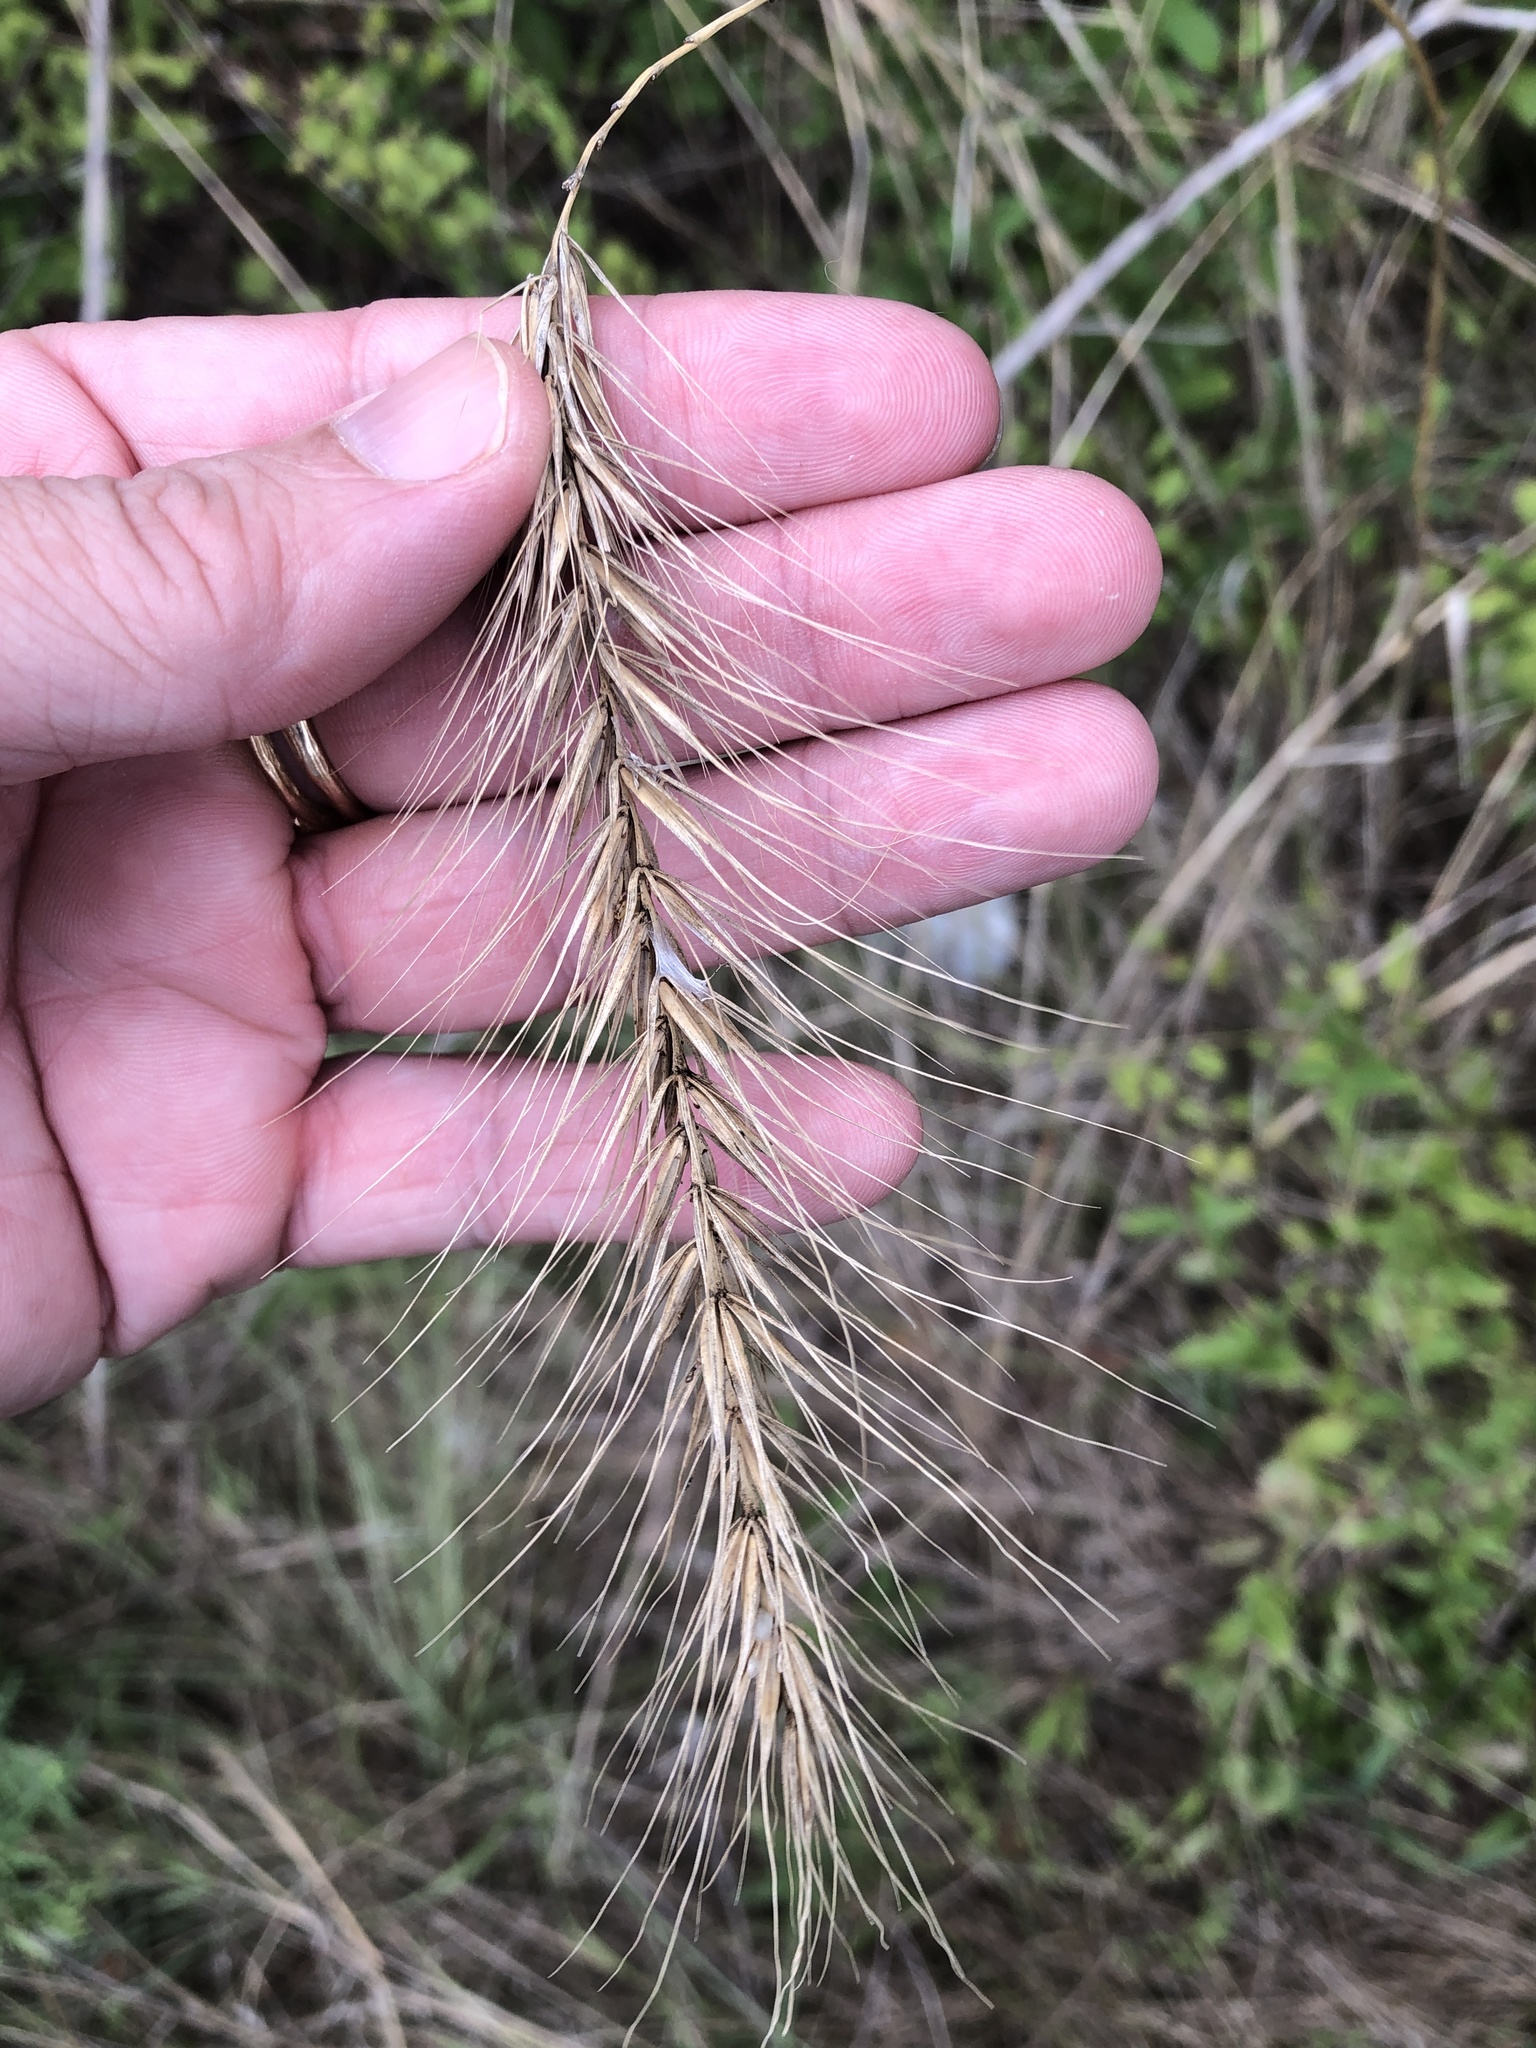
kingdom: Plantae
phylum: Tracheophyta
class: Liliopsida
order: Poales
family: Poaceae
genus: Elymus
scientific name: Elymus canadensis
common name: Canada wild rye
